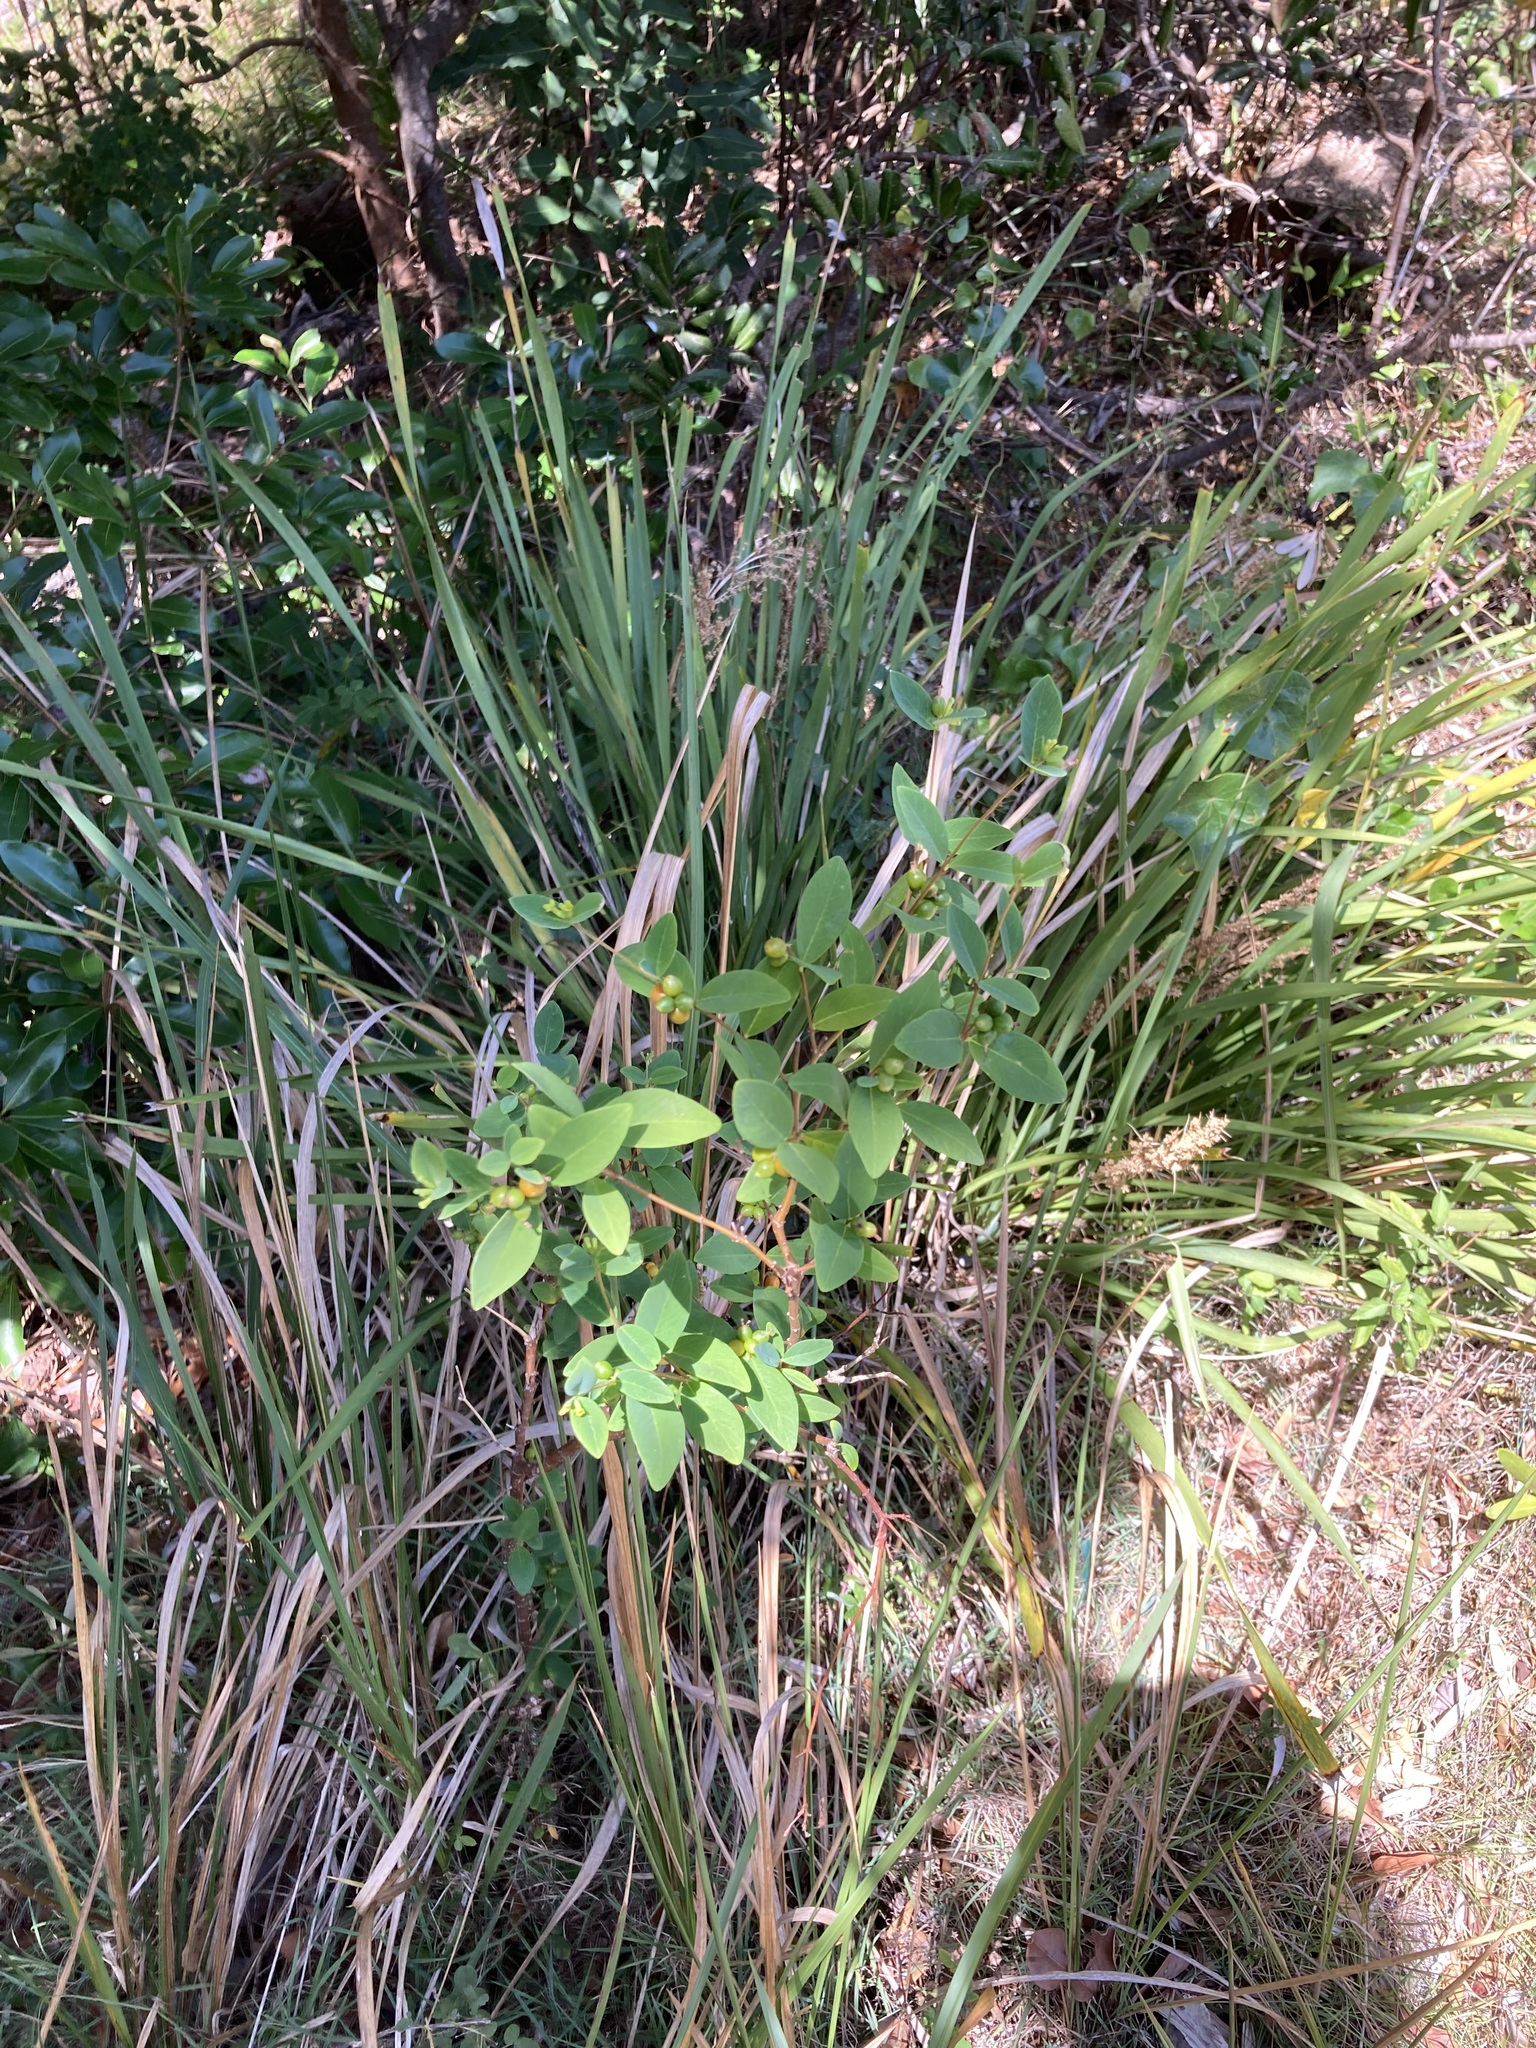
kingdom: Plantae
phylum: Tracheophyta
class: Magnoliopsida
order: Malvales
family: Thymelaeaceae
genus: Wikstroemia
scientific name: Wikstroemia indica
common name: Tiebush
